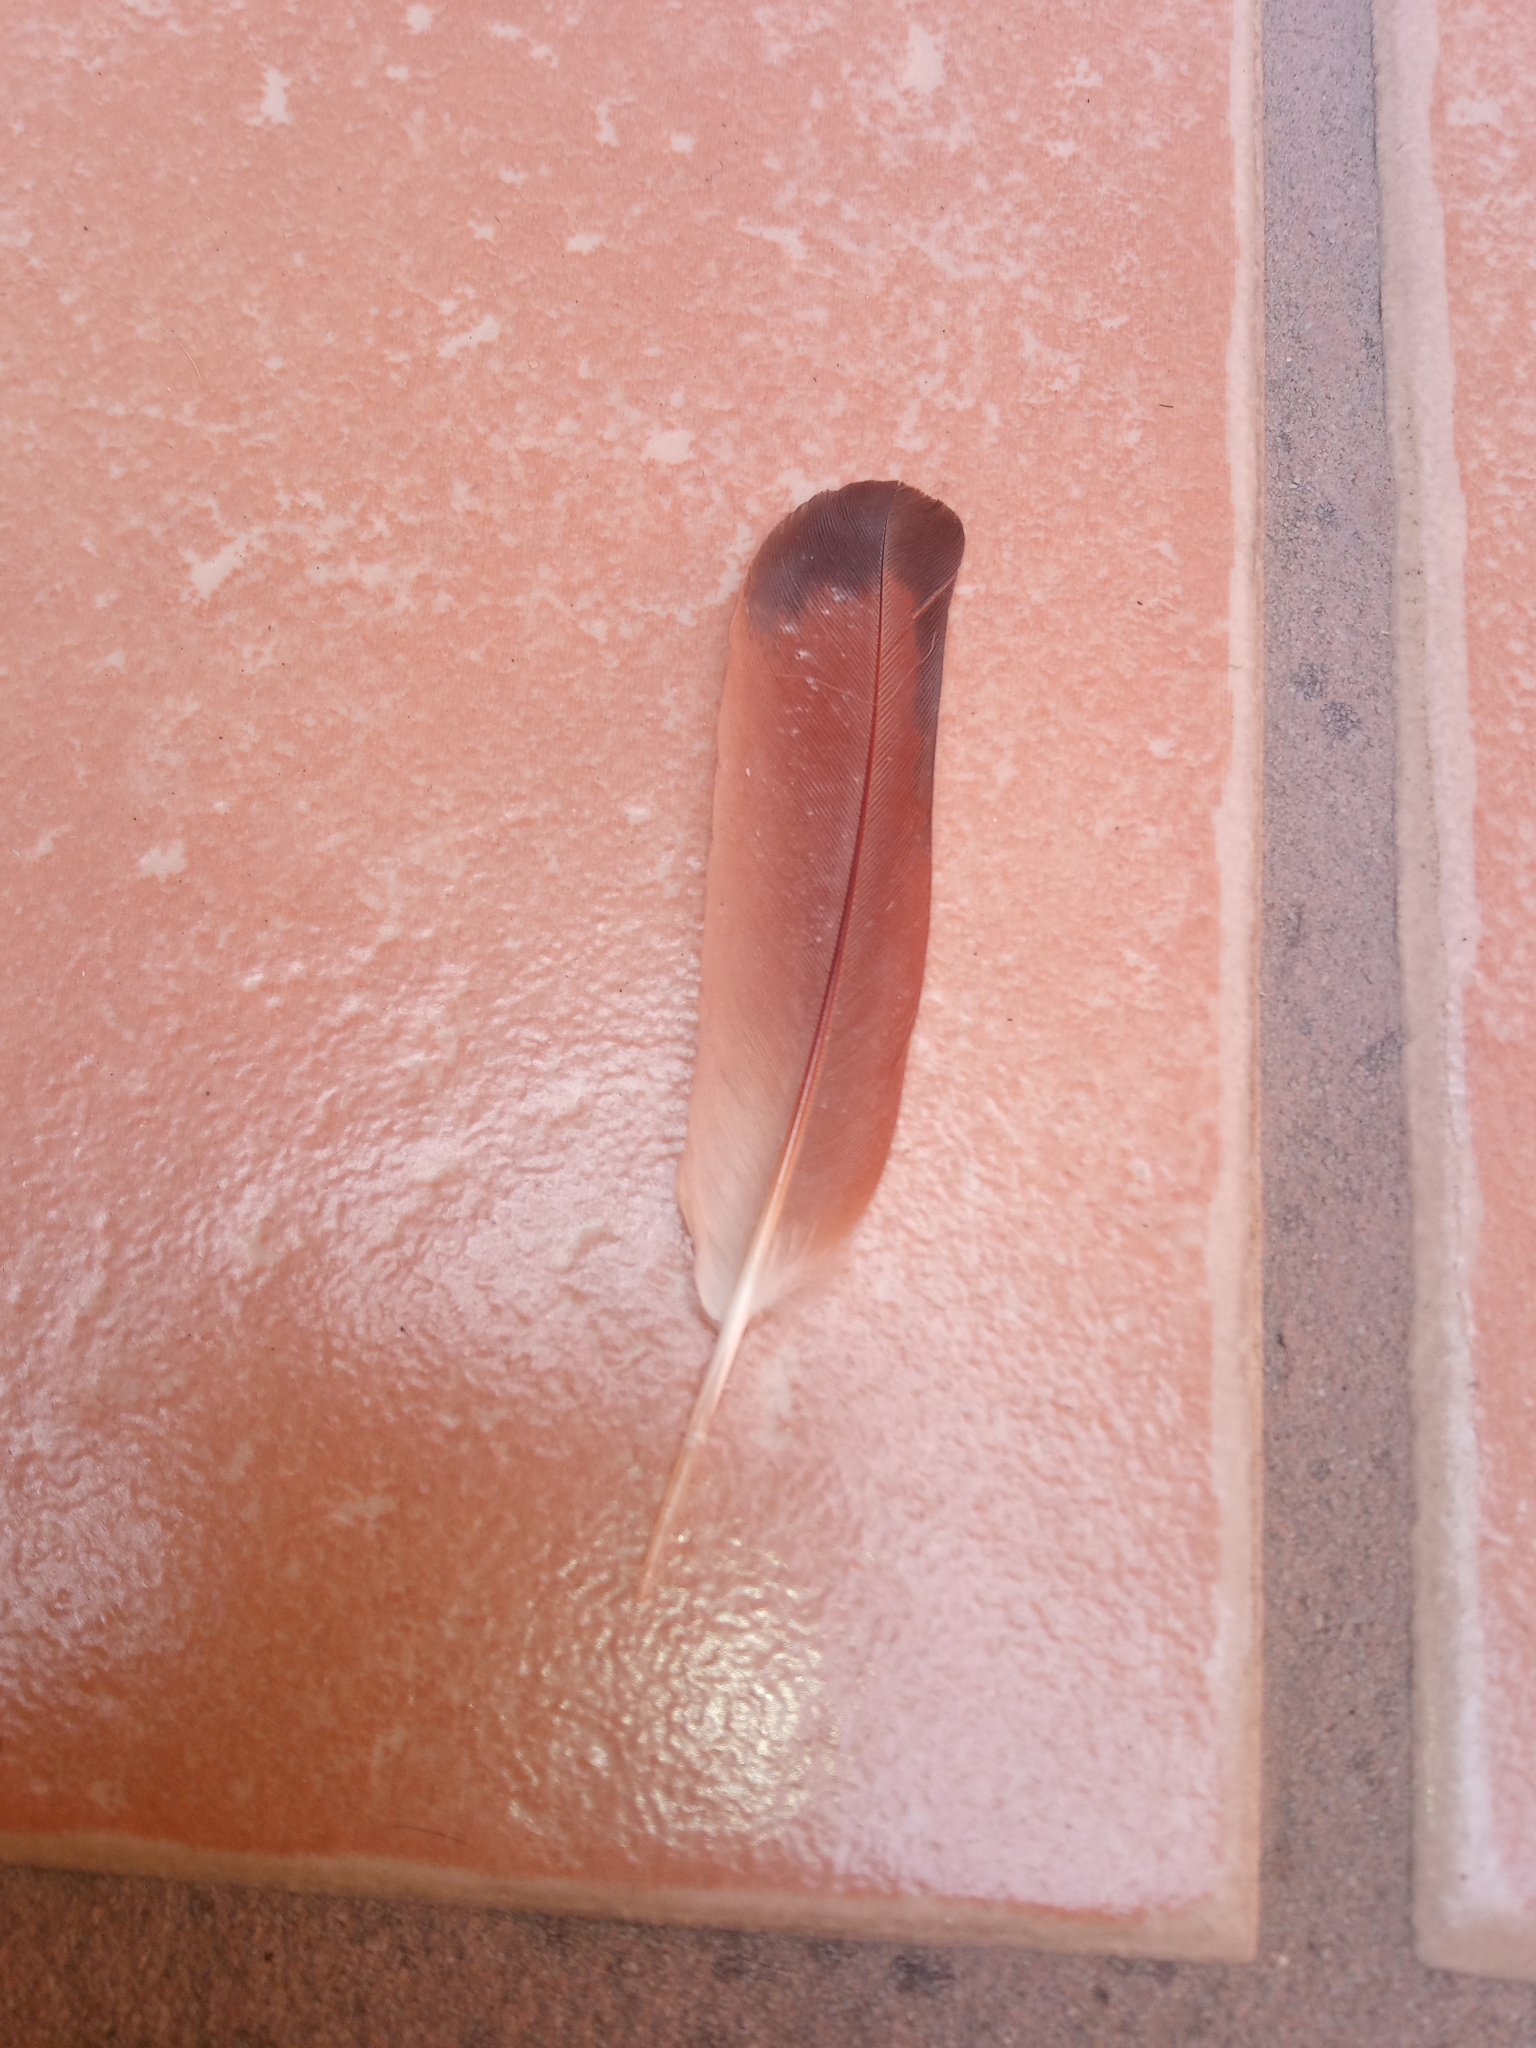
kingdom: Animalia
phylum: Chordata
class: Aves
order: Columbiformes
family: Columbidae
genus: Columbina
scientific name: Columbina inca
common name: Inca dove
